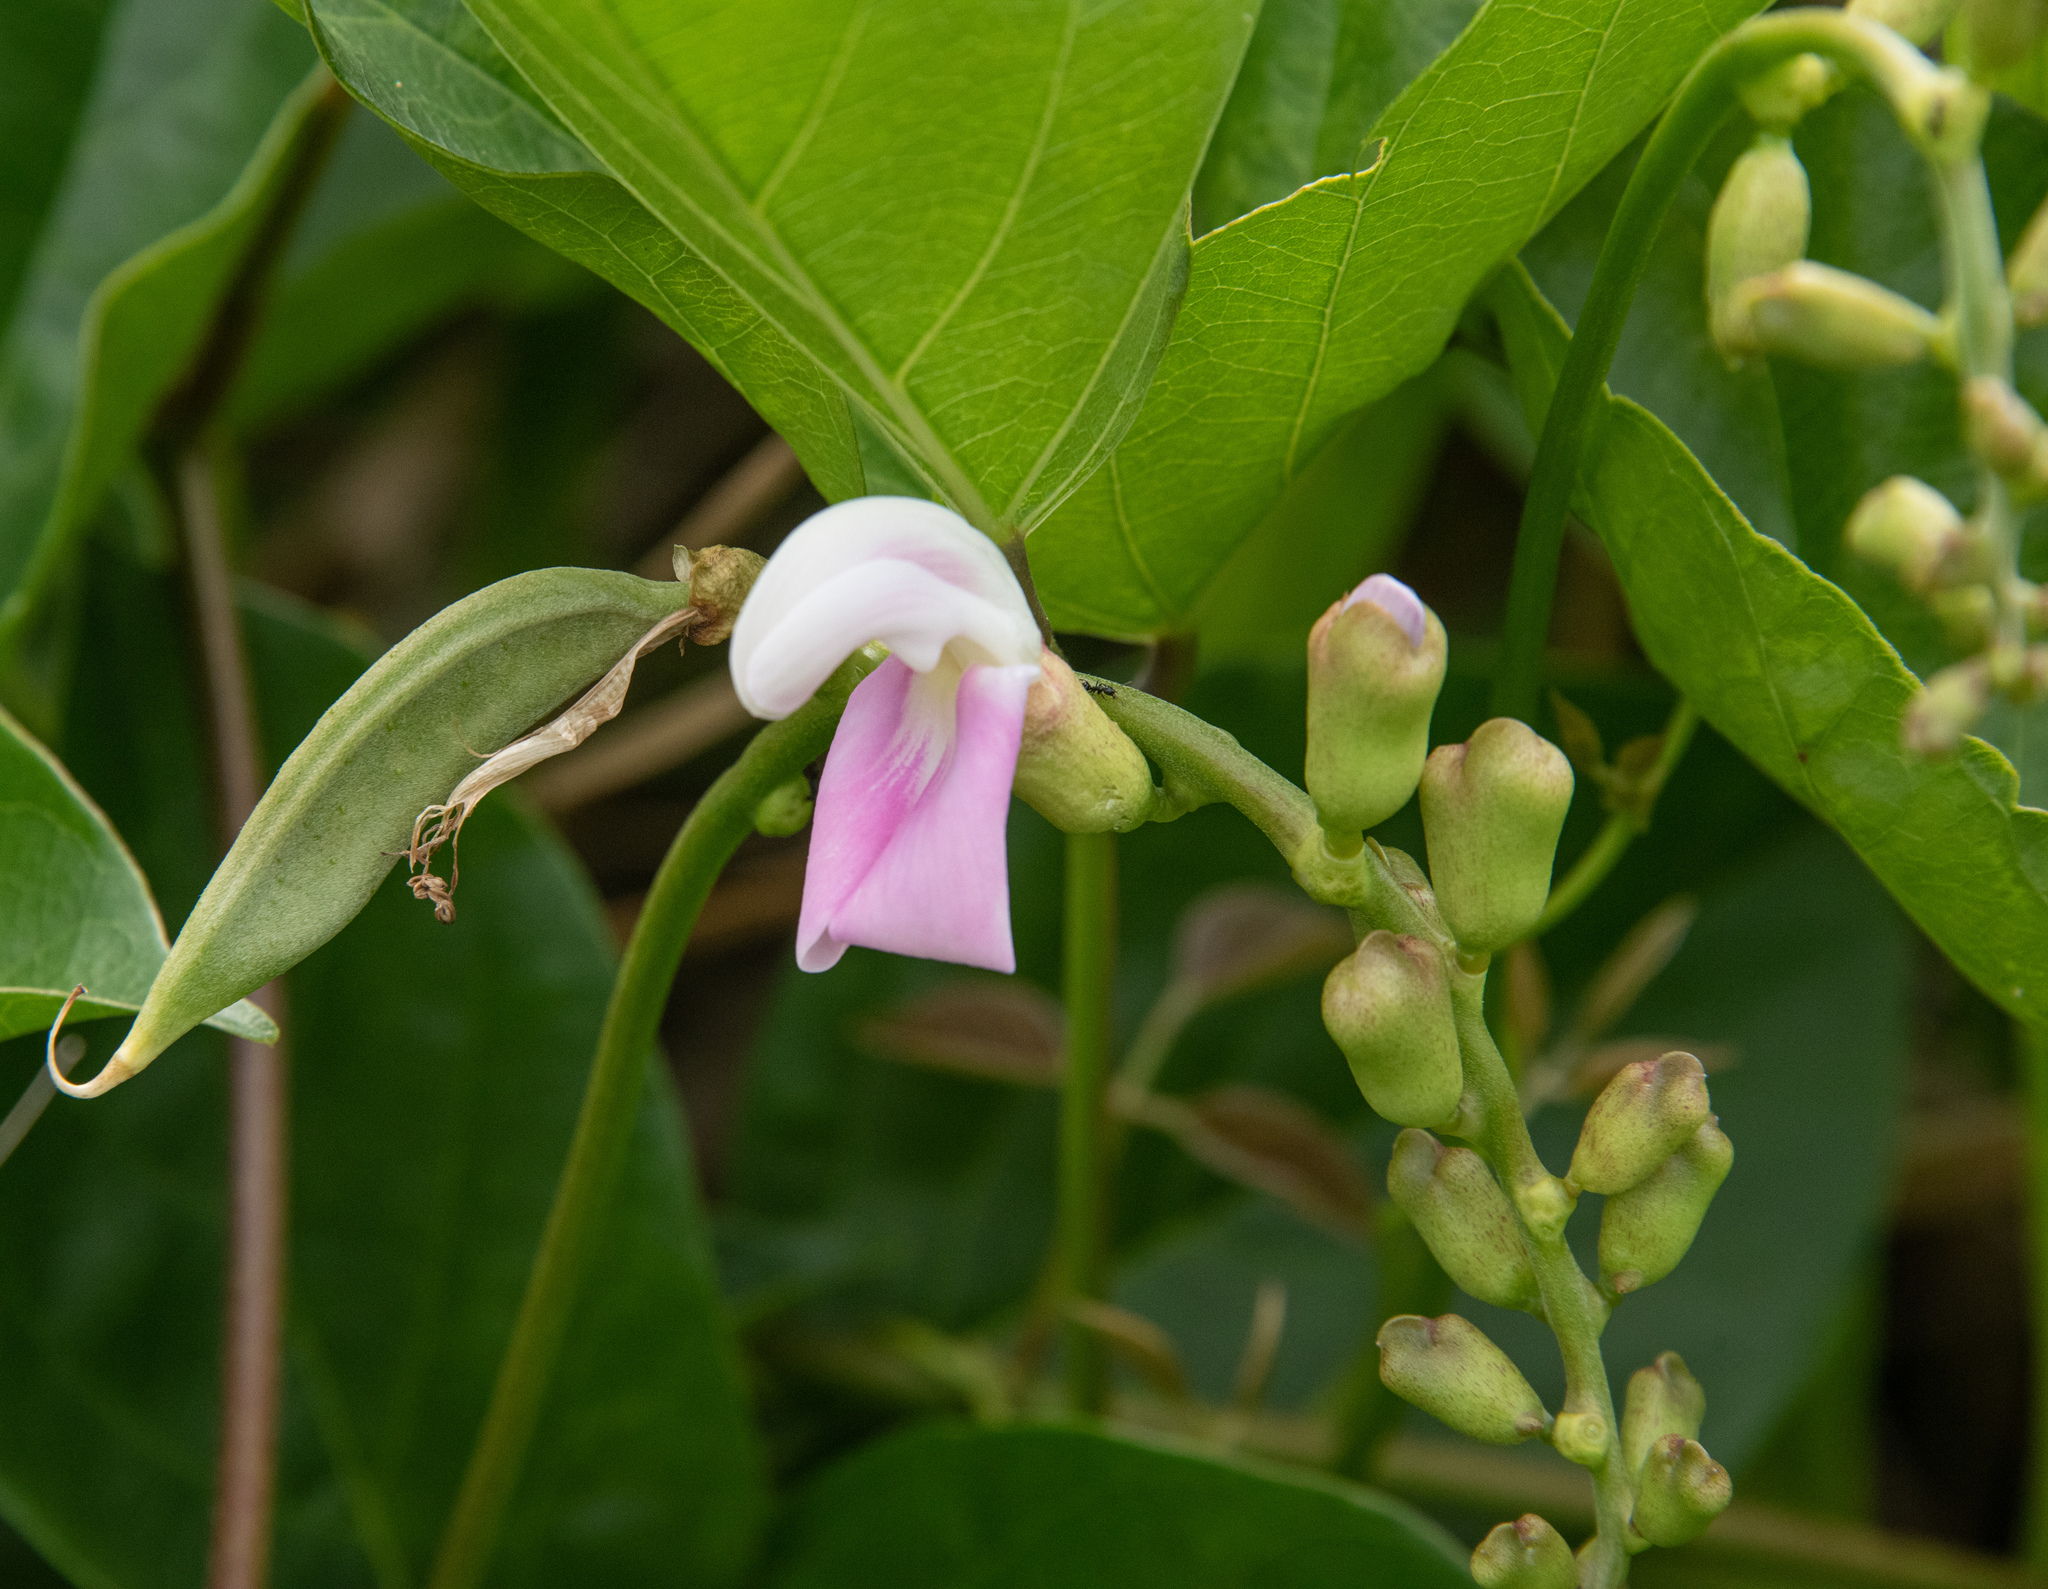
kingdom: Plantae
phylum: Tracheophyta
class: Magnoliopsida
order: Fabales
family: Fabaceae
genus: Canavalia
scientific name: Canavalia cathartica
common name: Maunaloa
